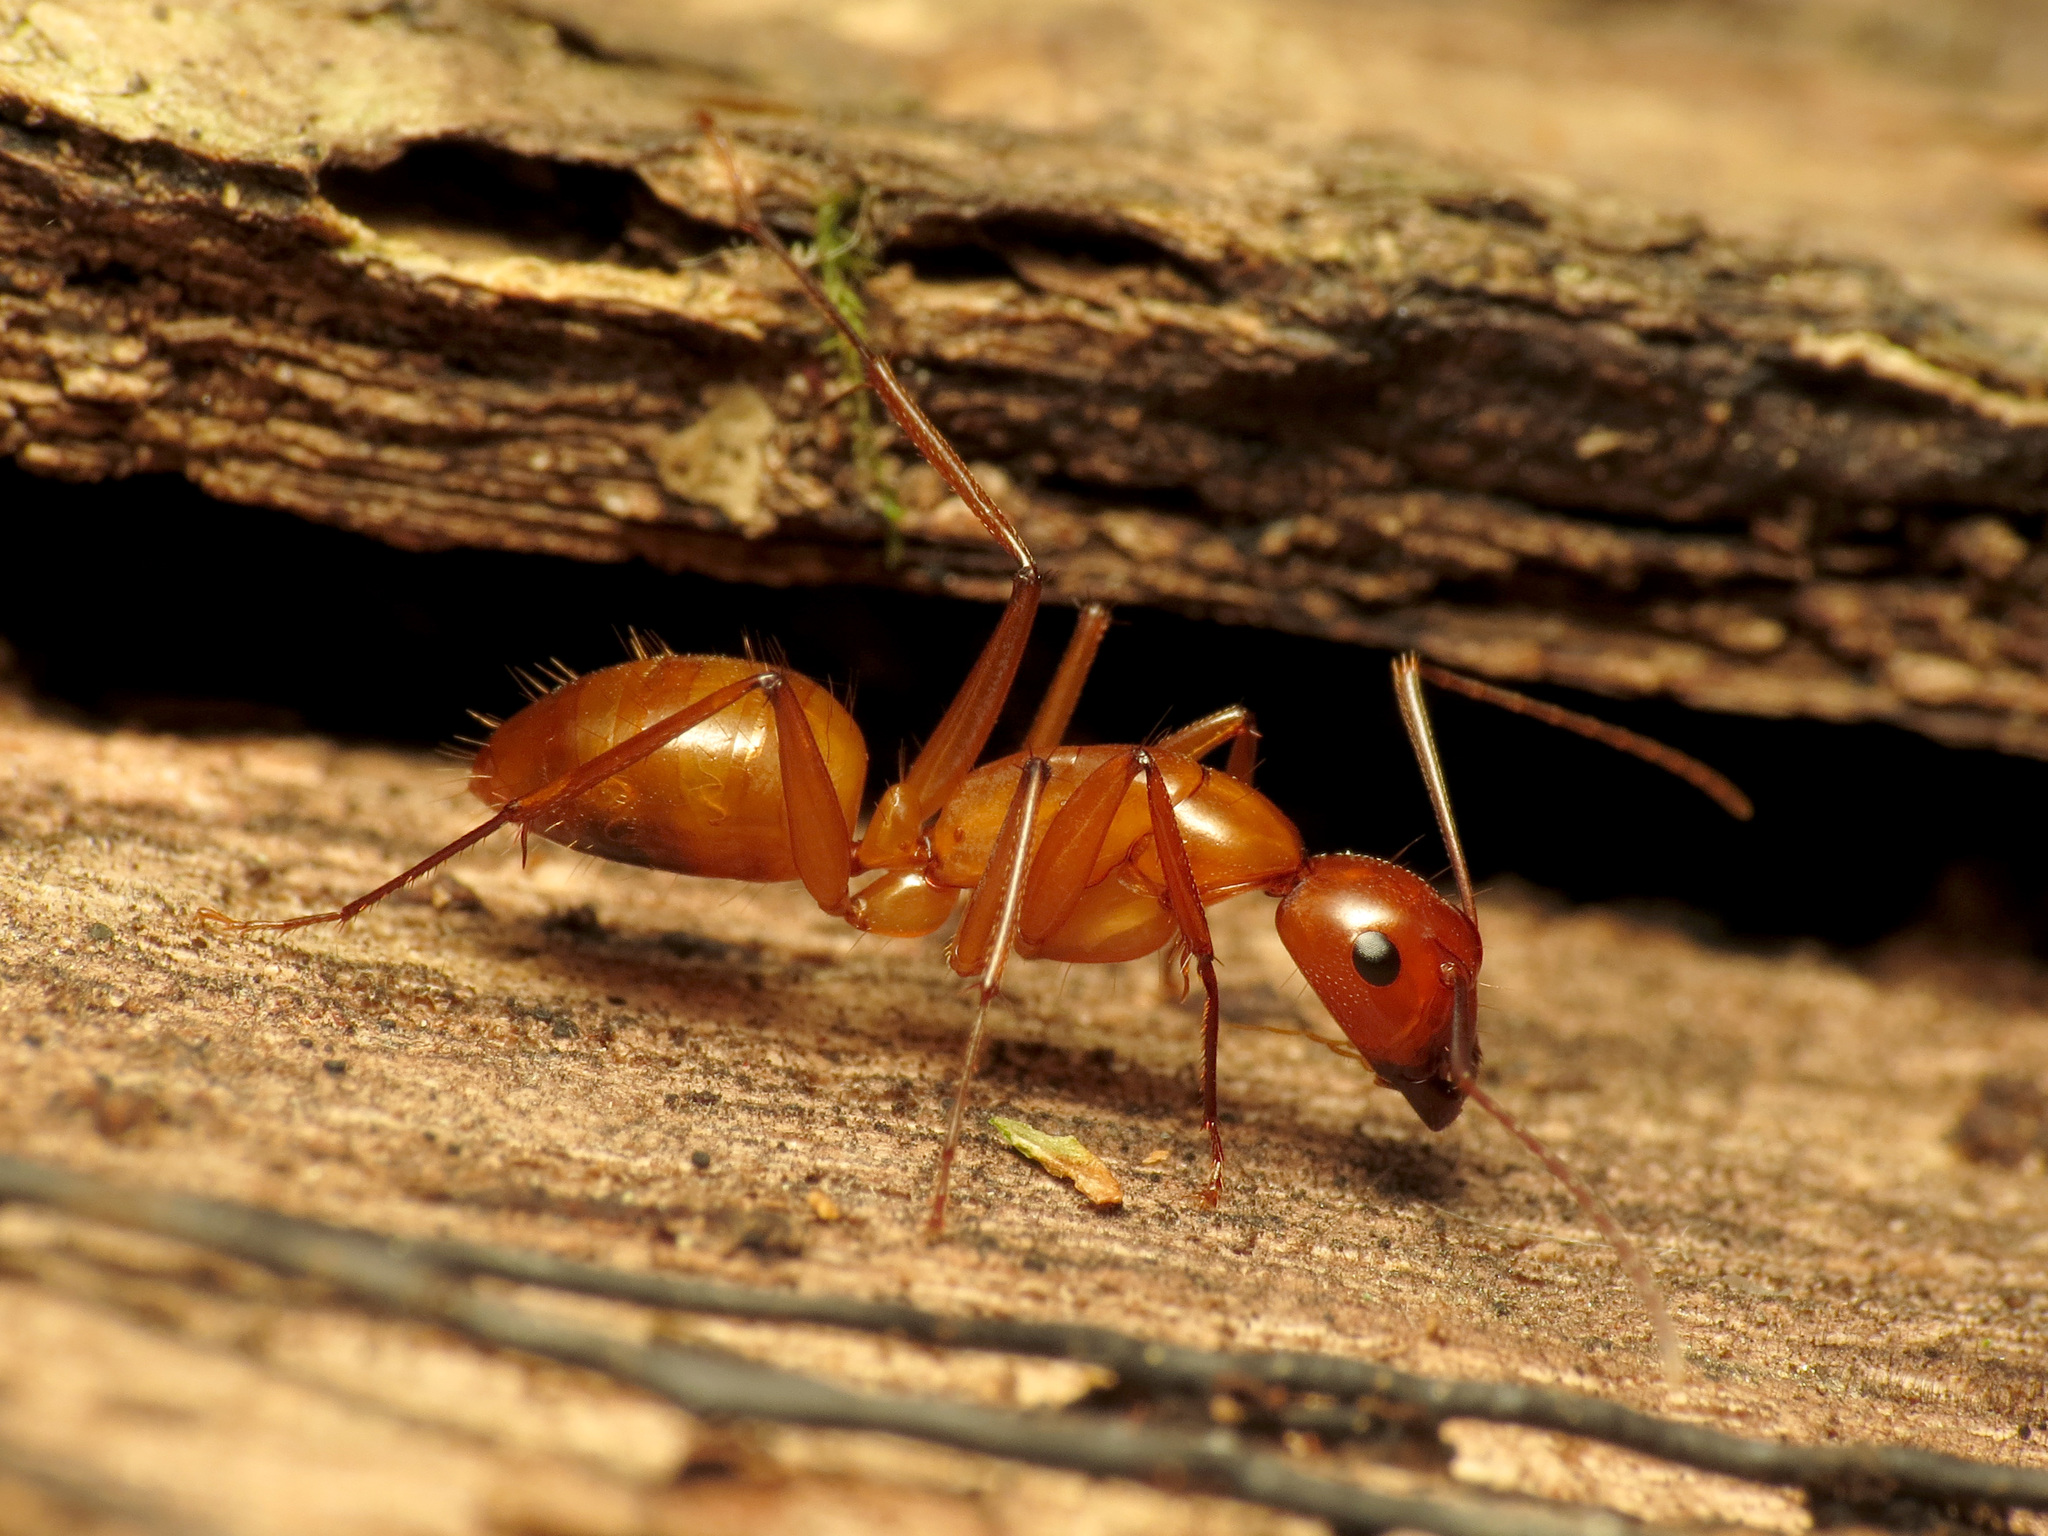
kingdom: Animalia
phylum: Arthropoda
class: Insecta
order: Hymenoptera
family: Formicidae
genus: Camponotus
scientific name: Camponotus castaneus
